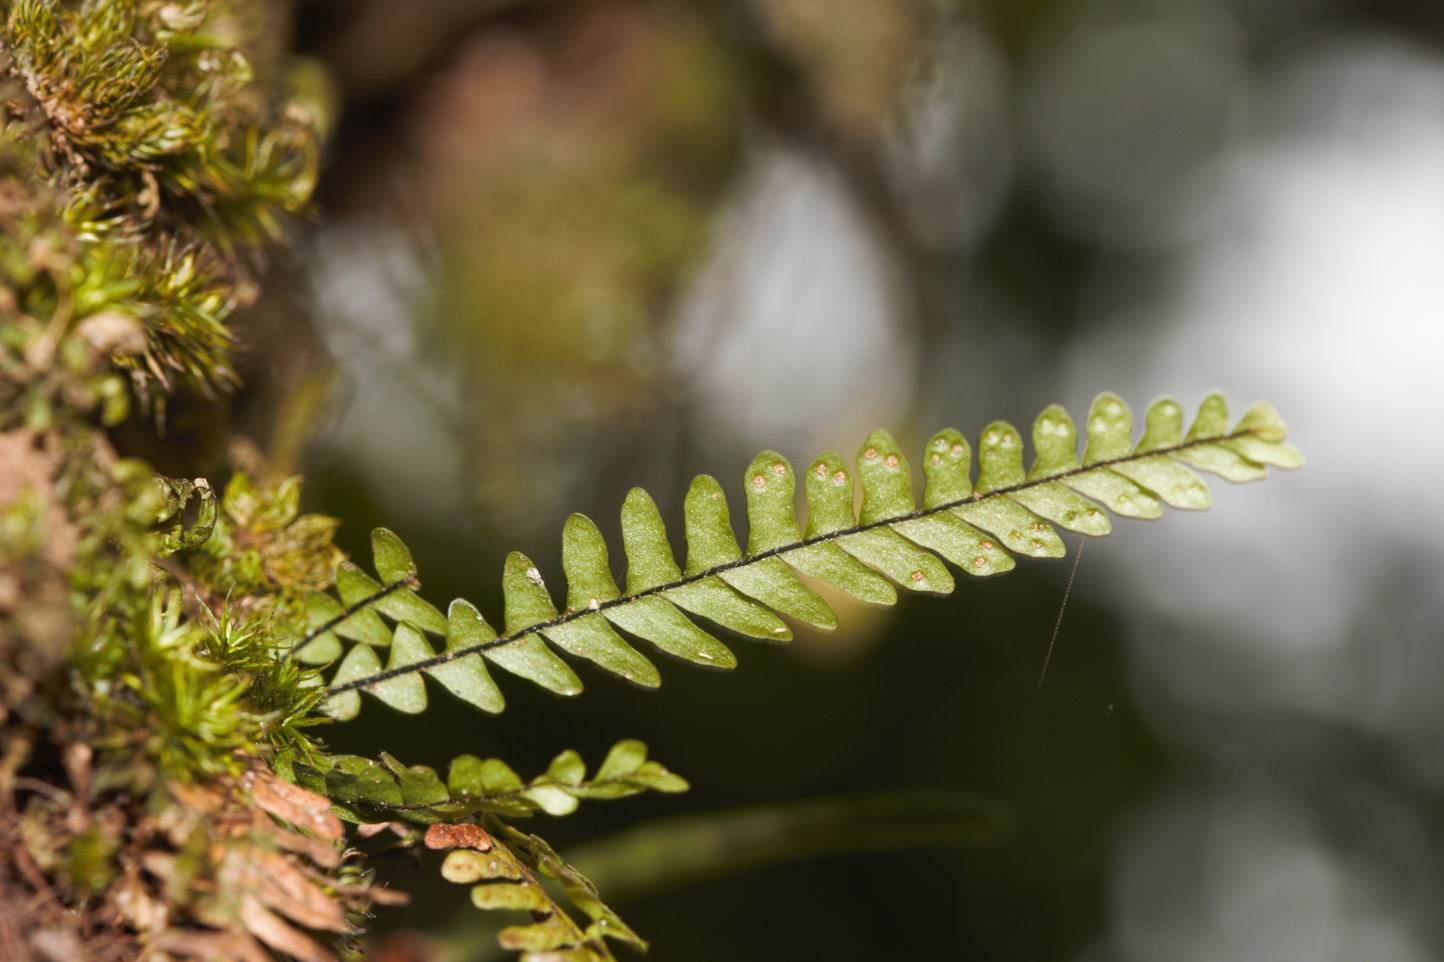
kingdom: Plantae
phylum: Tracheophyta
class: Polypodiopsida
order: Polypodiales
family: Polypodiaceae
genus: Lellingeria
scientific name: Lellingeria suspensa
